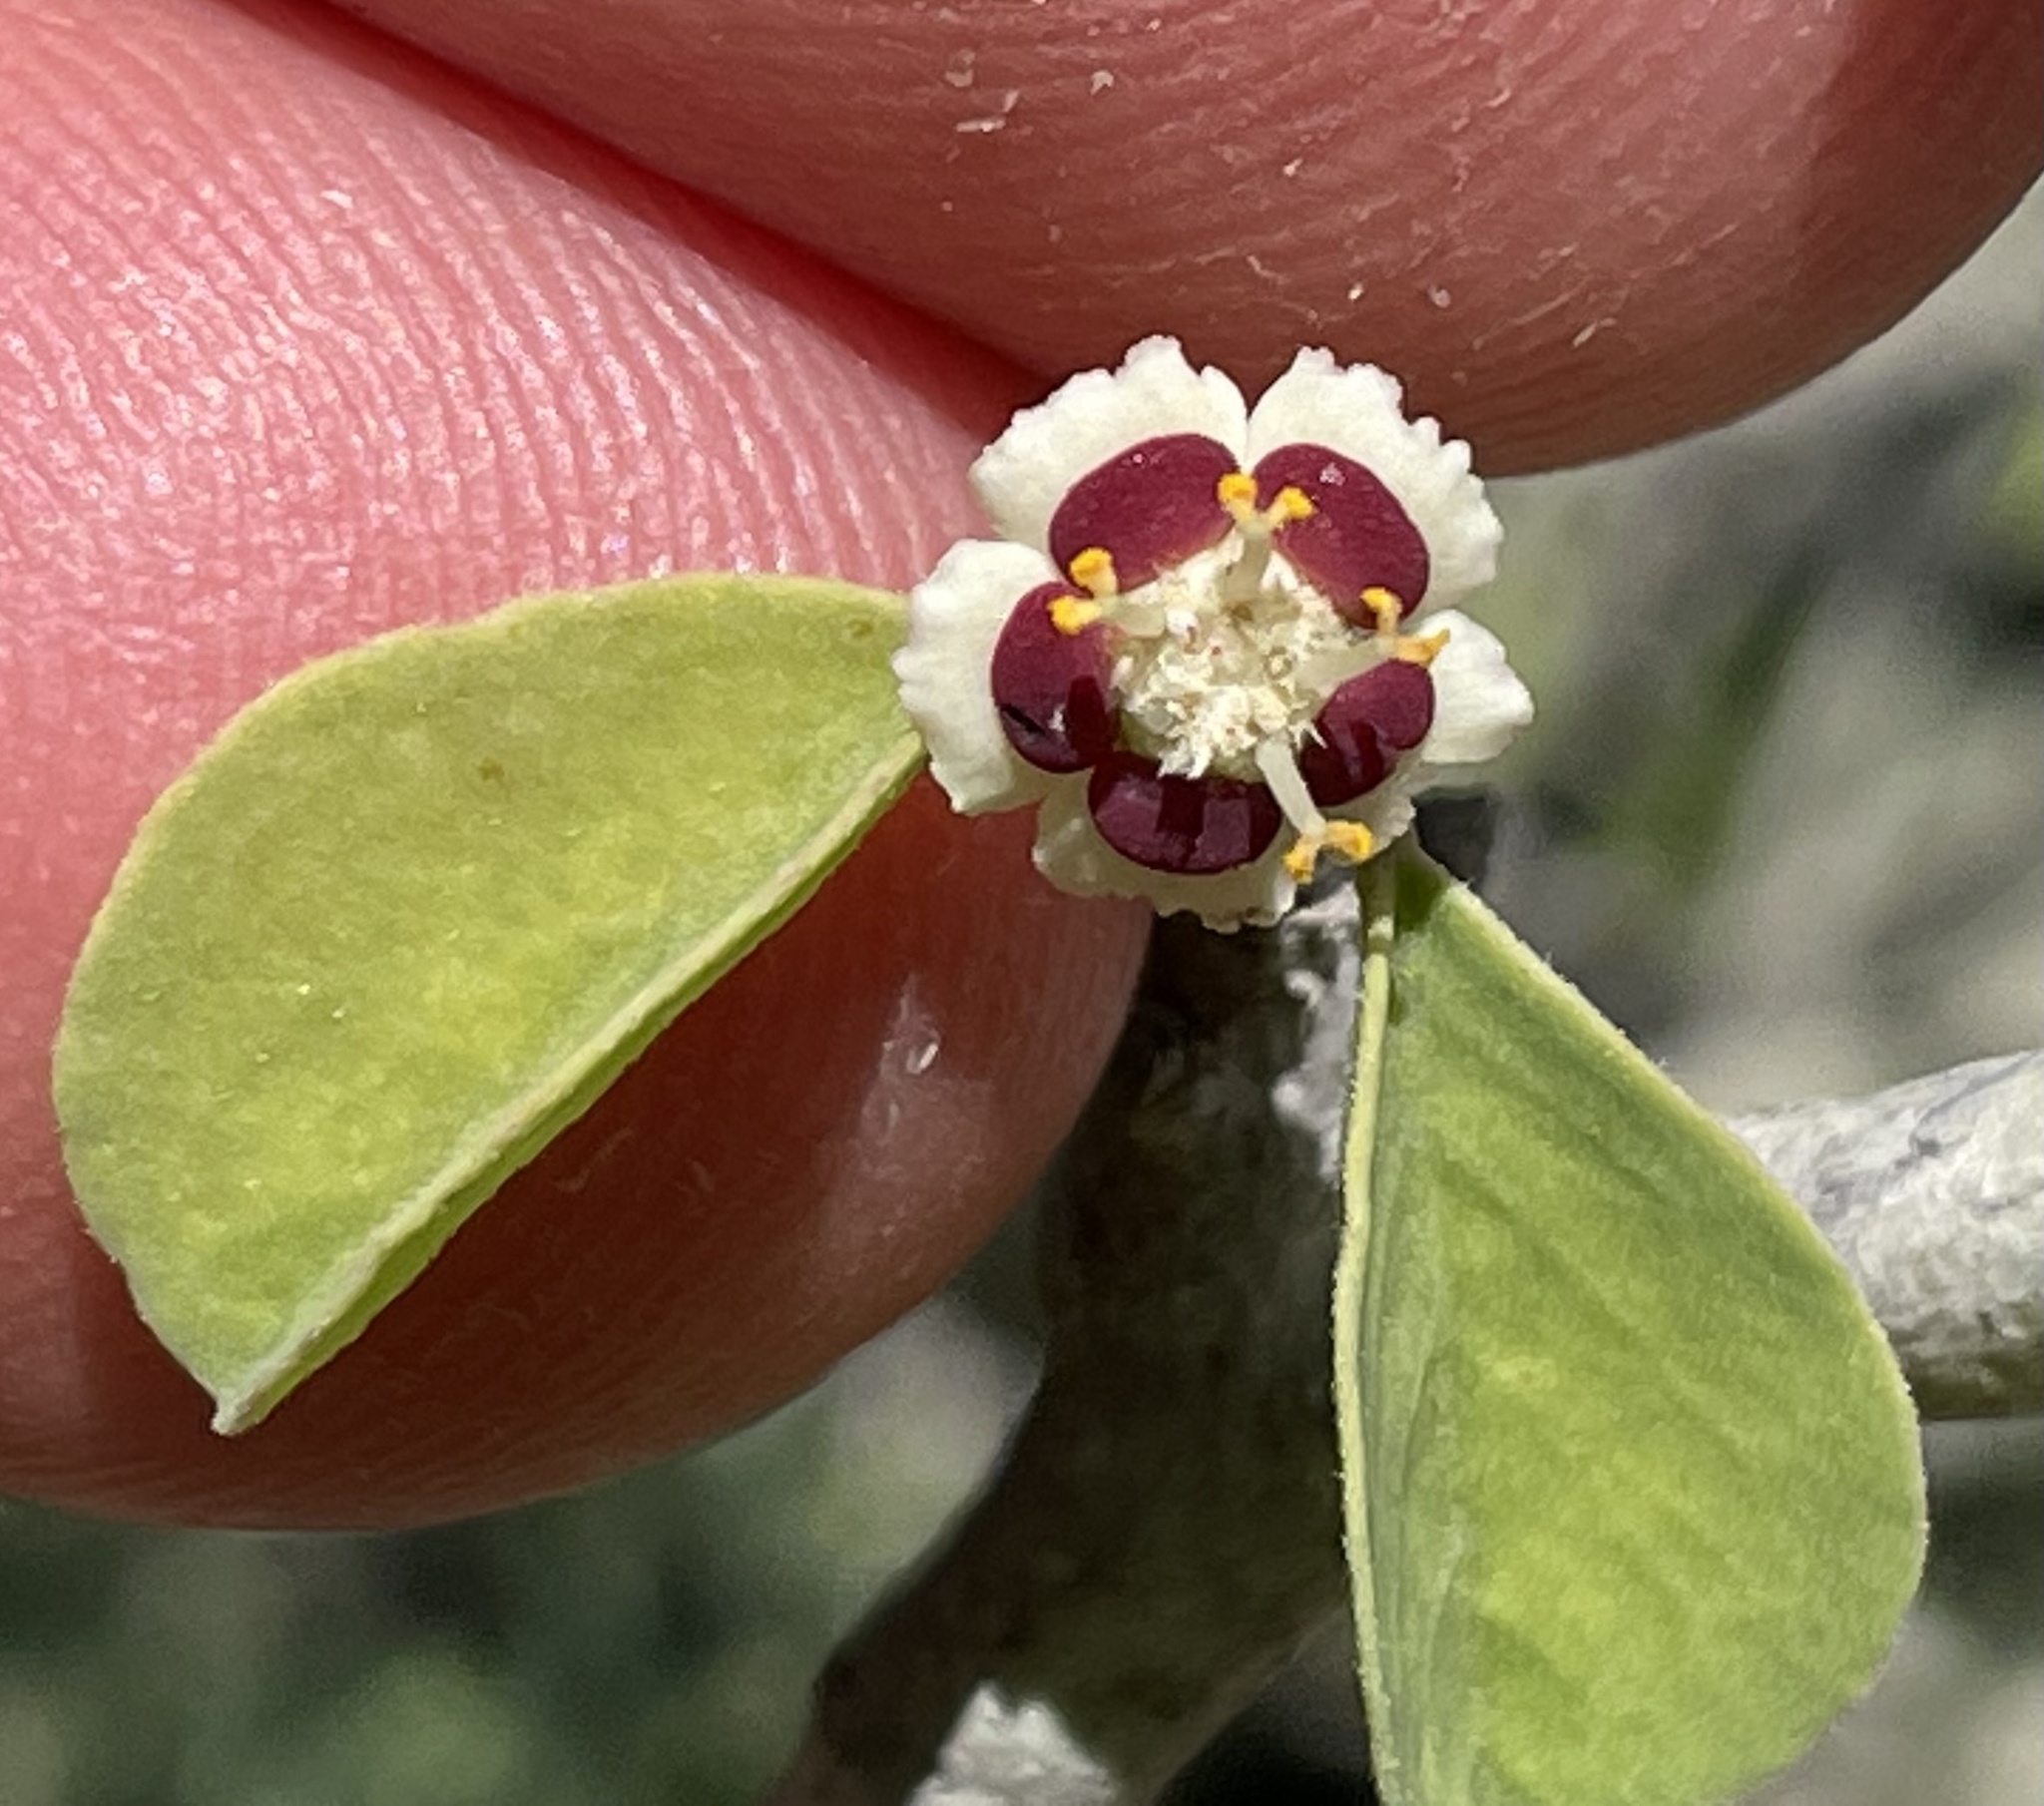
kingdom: Plantae
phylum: Tracheophyta
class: Magnoliopsida
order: Malpighiales
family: Euphorbiaceae
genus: Euphorbia
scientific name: Euphorbia misera
